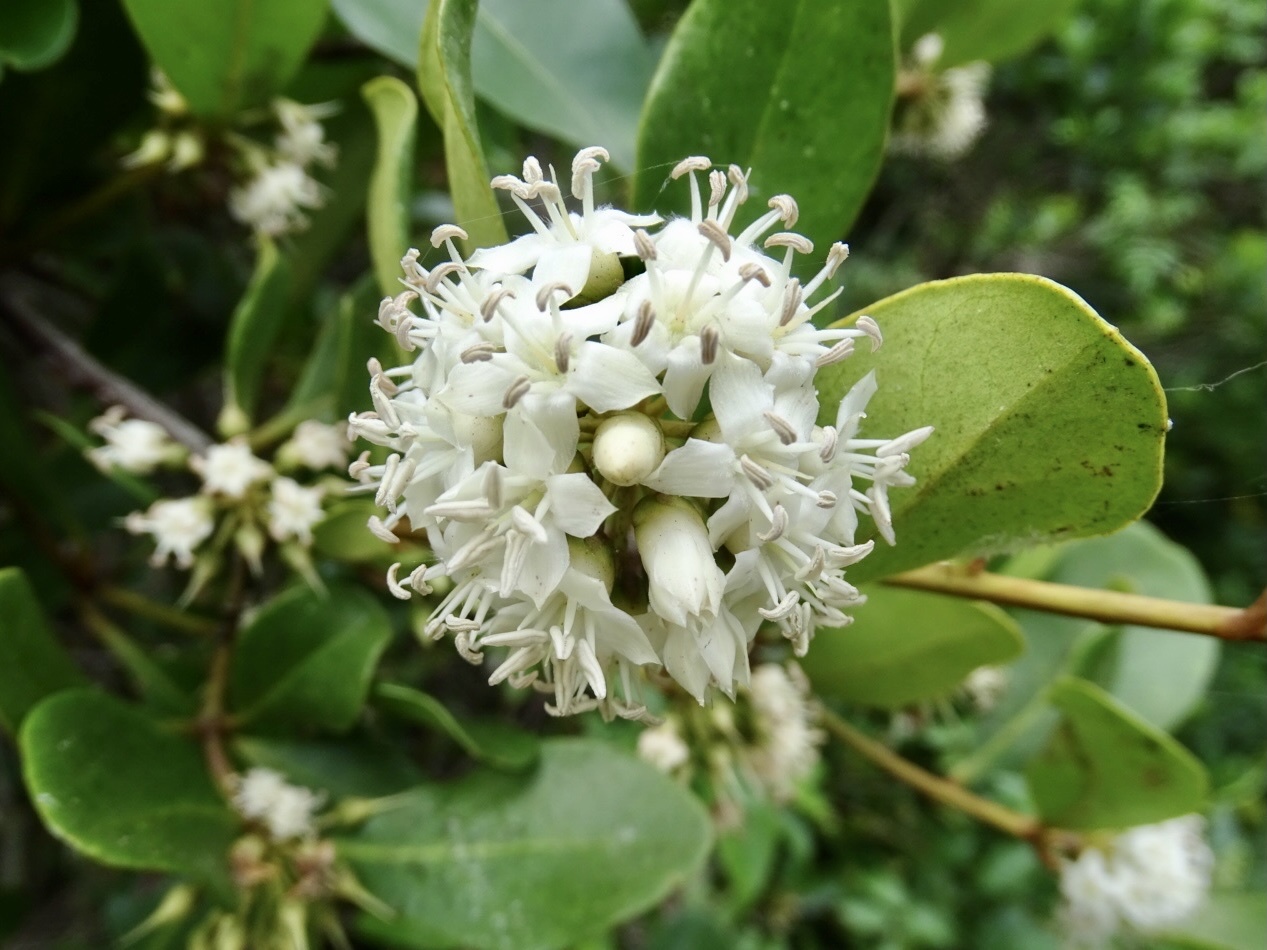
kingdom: Plantae
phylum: Tracheophyta
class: Magnoliopsida
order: Ericales
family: Primulaceae
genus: Aegiceras
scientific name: Aegiceras corniculatum
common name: River mangrove
